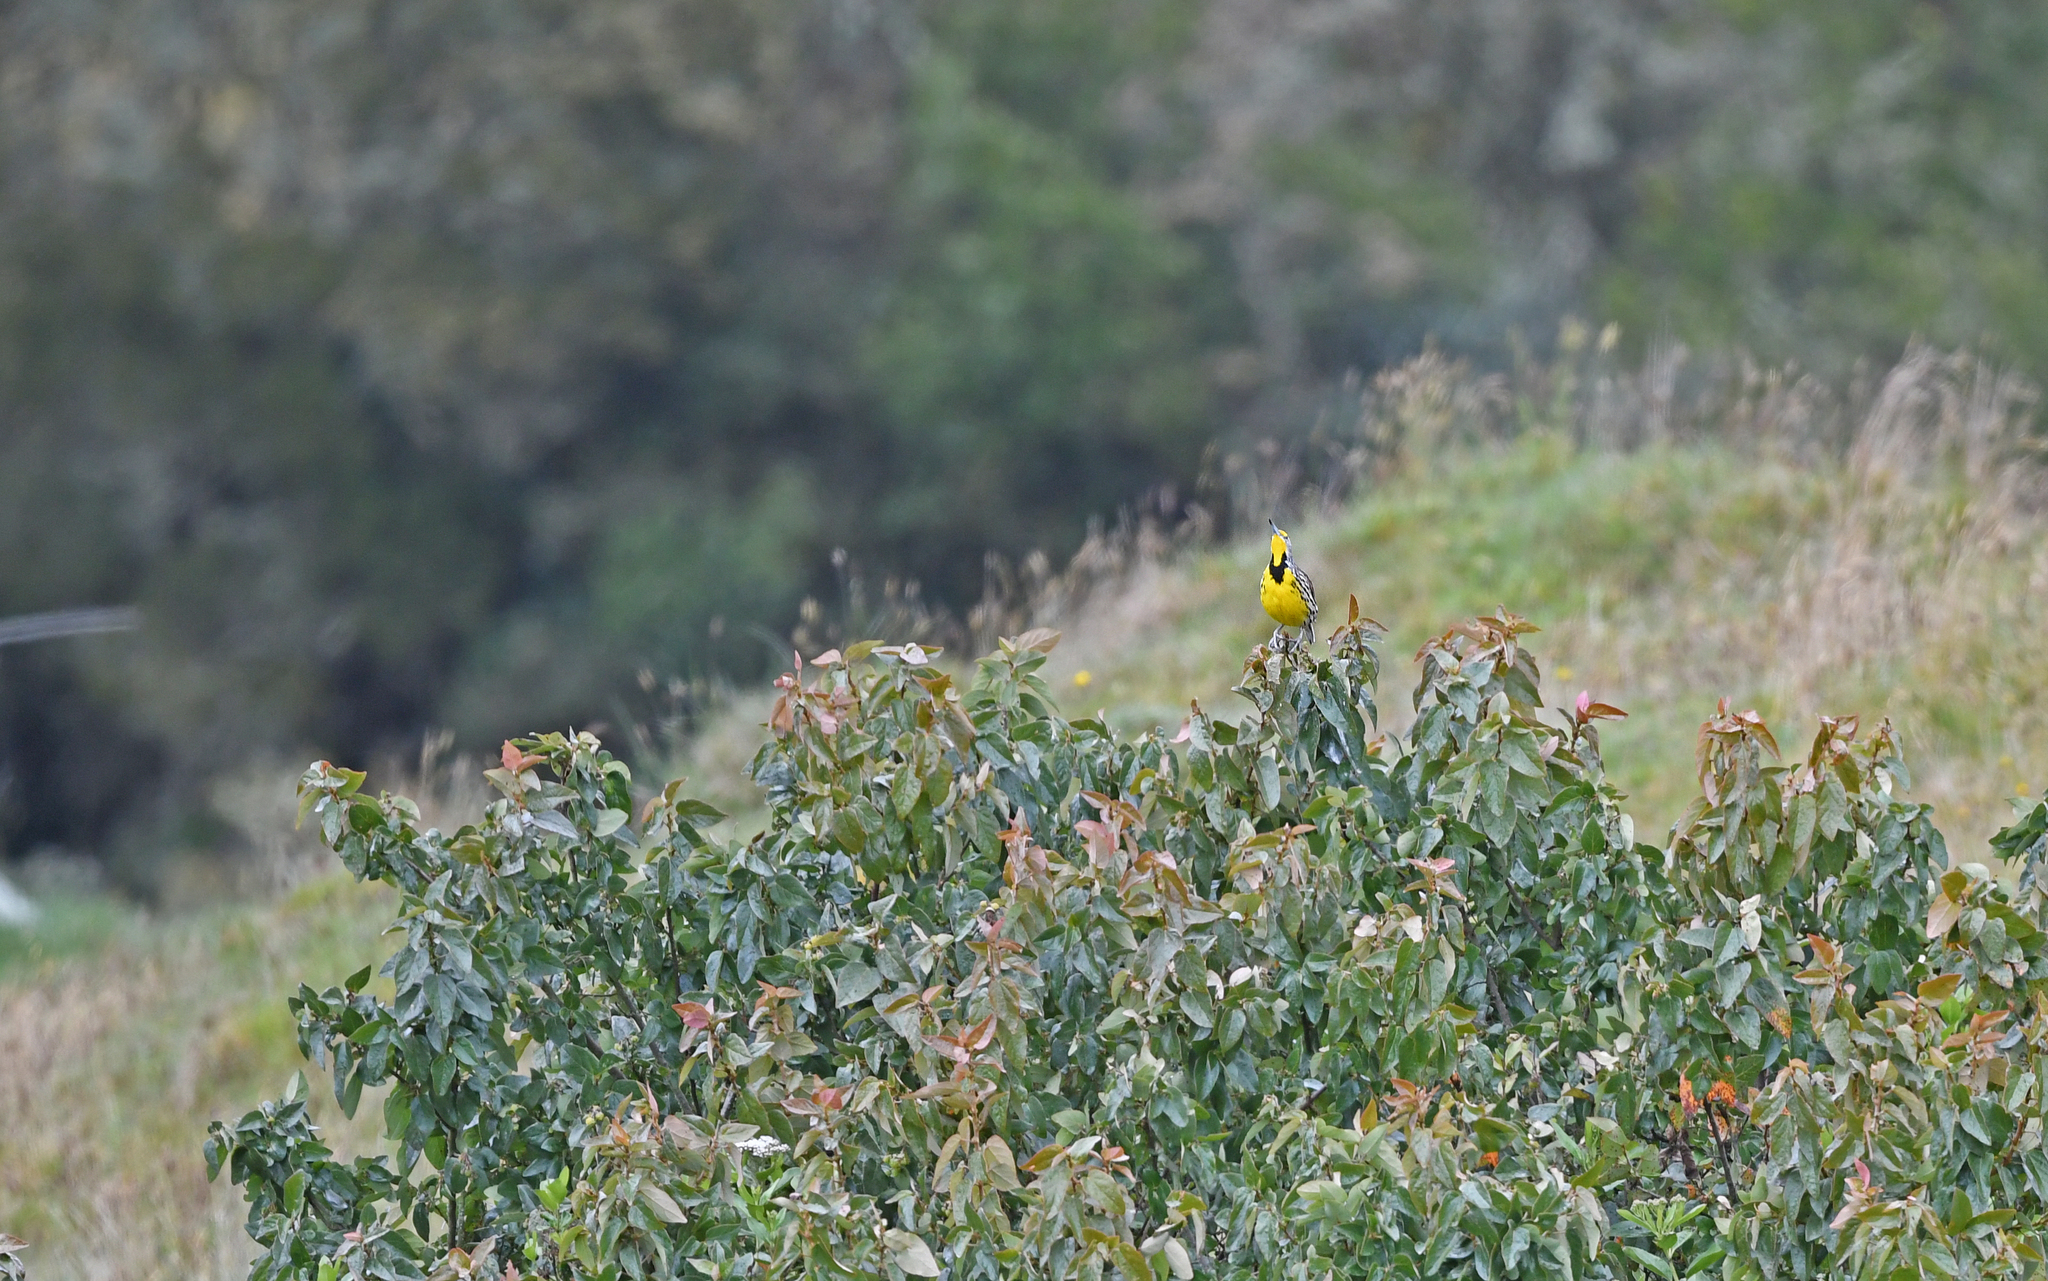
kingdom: Animalia
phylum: Chordata
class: Aves
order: Passeriformes
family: Icteridae
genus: Sturnella
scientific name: Sturnella magna
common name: Eastern meadowlark
